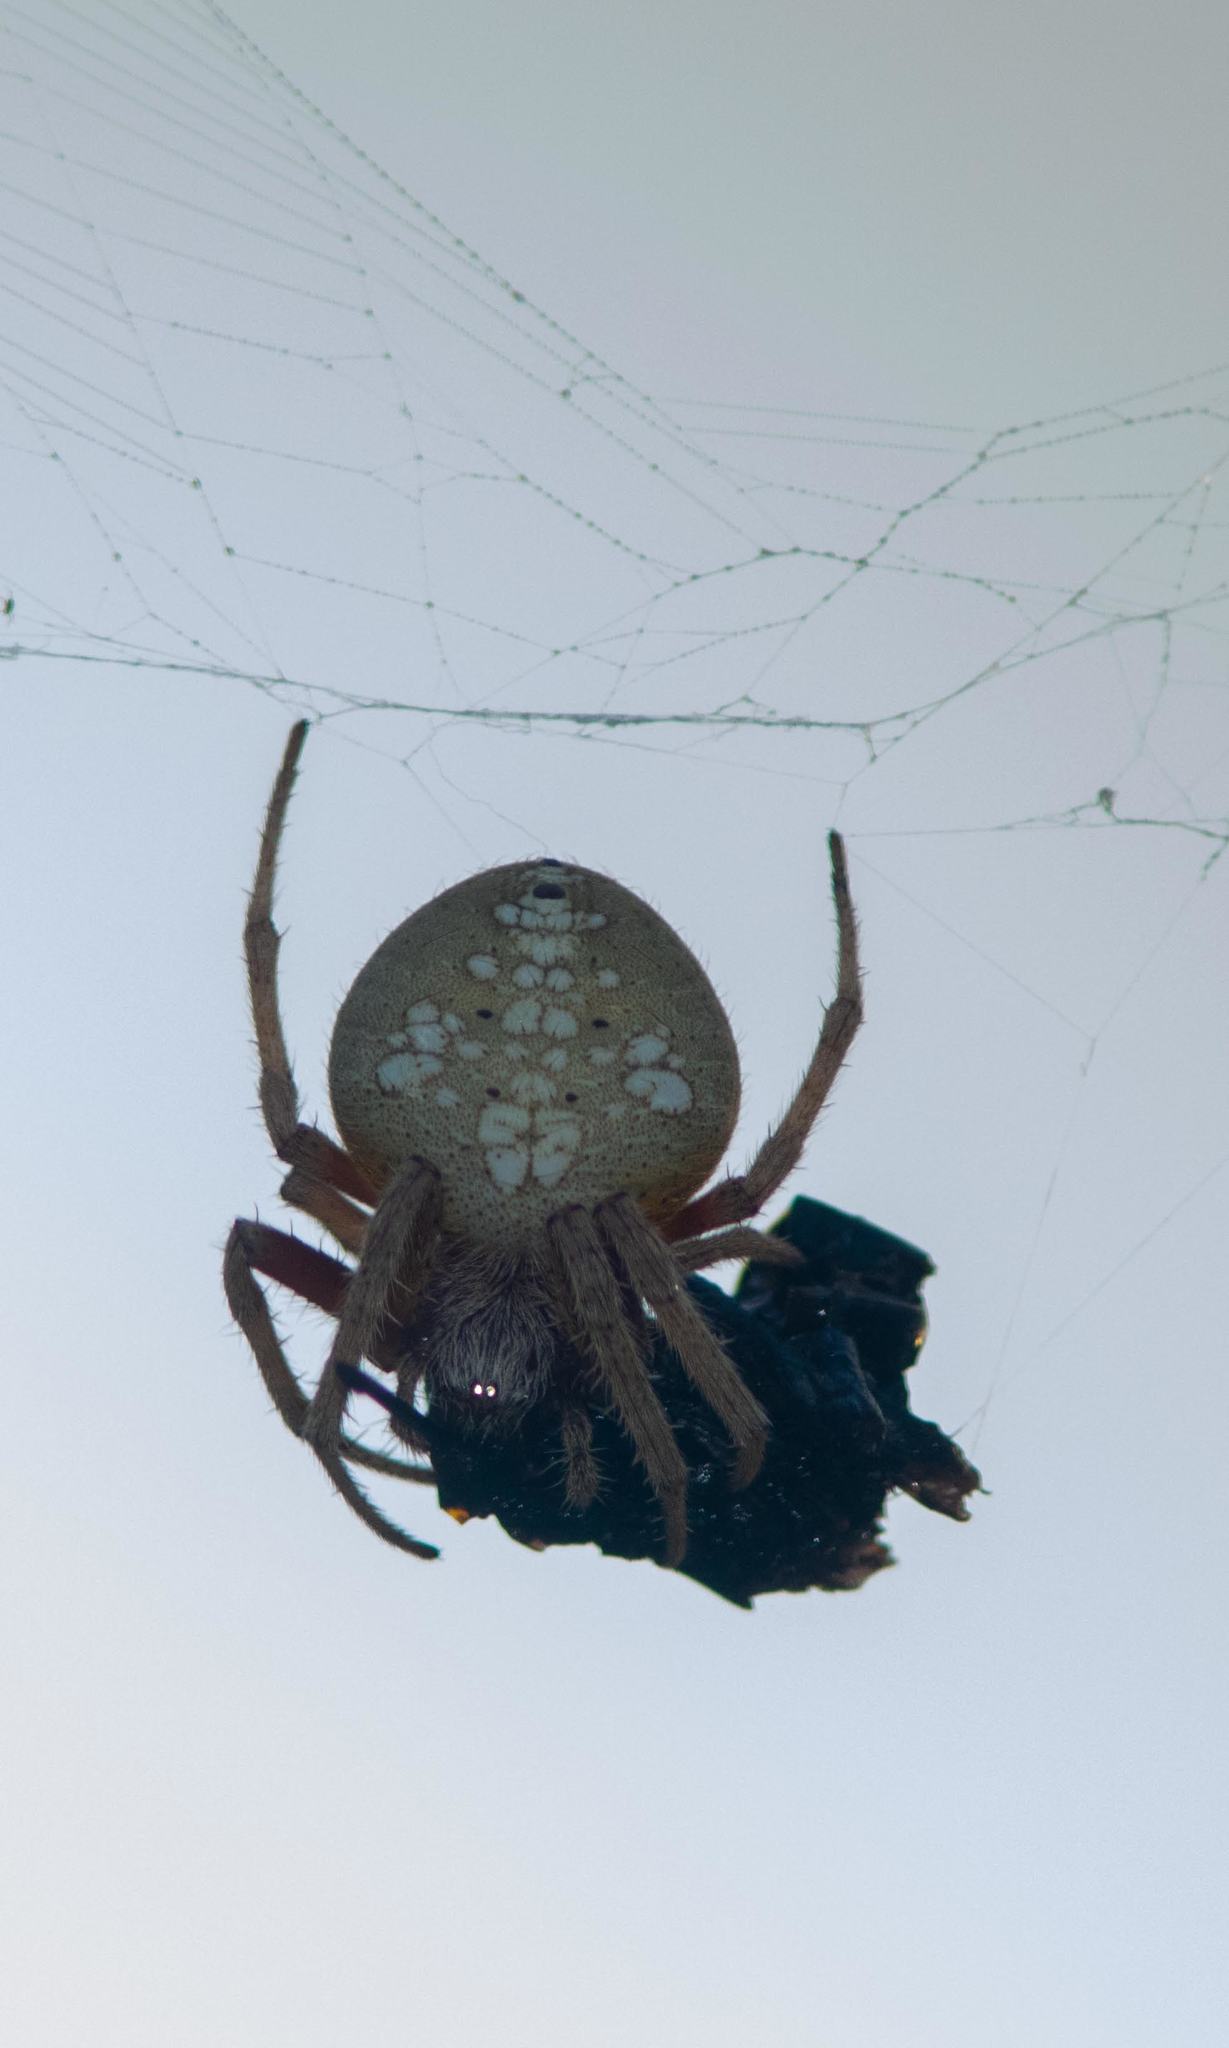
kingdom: Animalia
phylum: Arthropoda
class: Arachnida
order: Araneae
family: Araneidae
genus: Eriophora
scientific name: Eriophora ravilla
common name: Orb weavers
